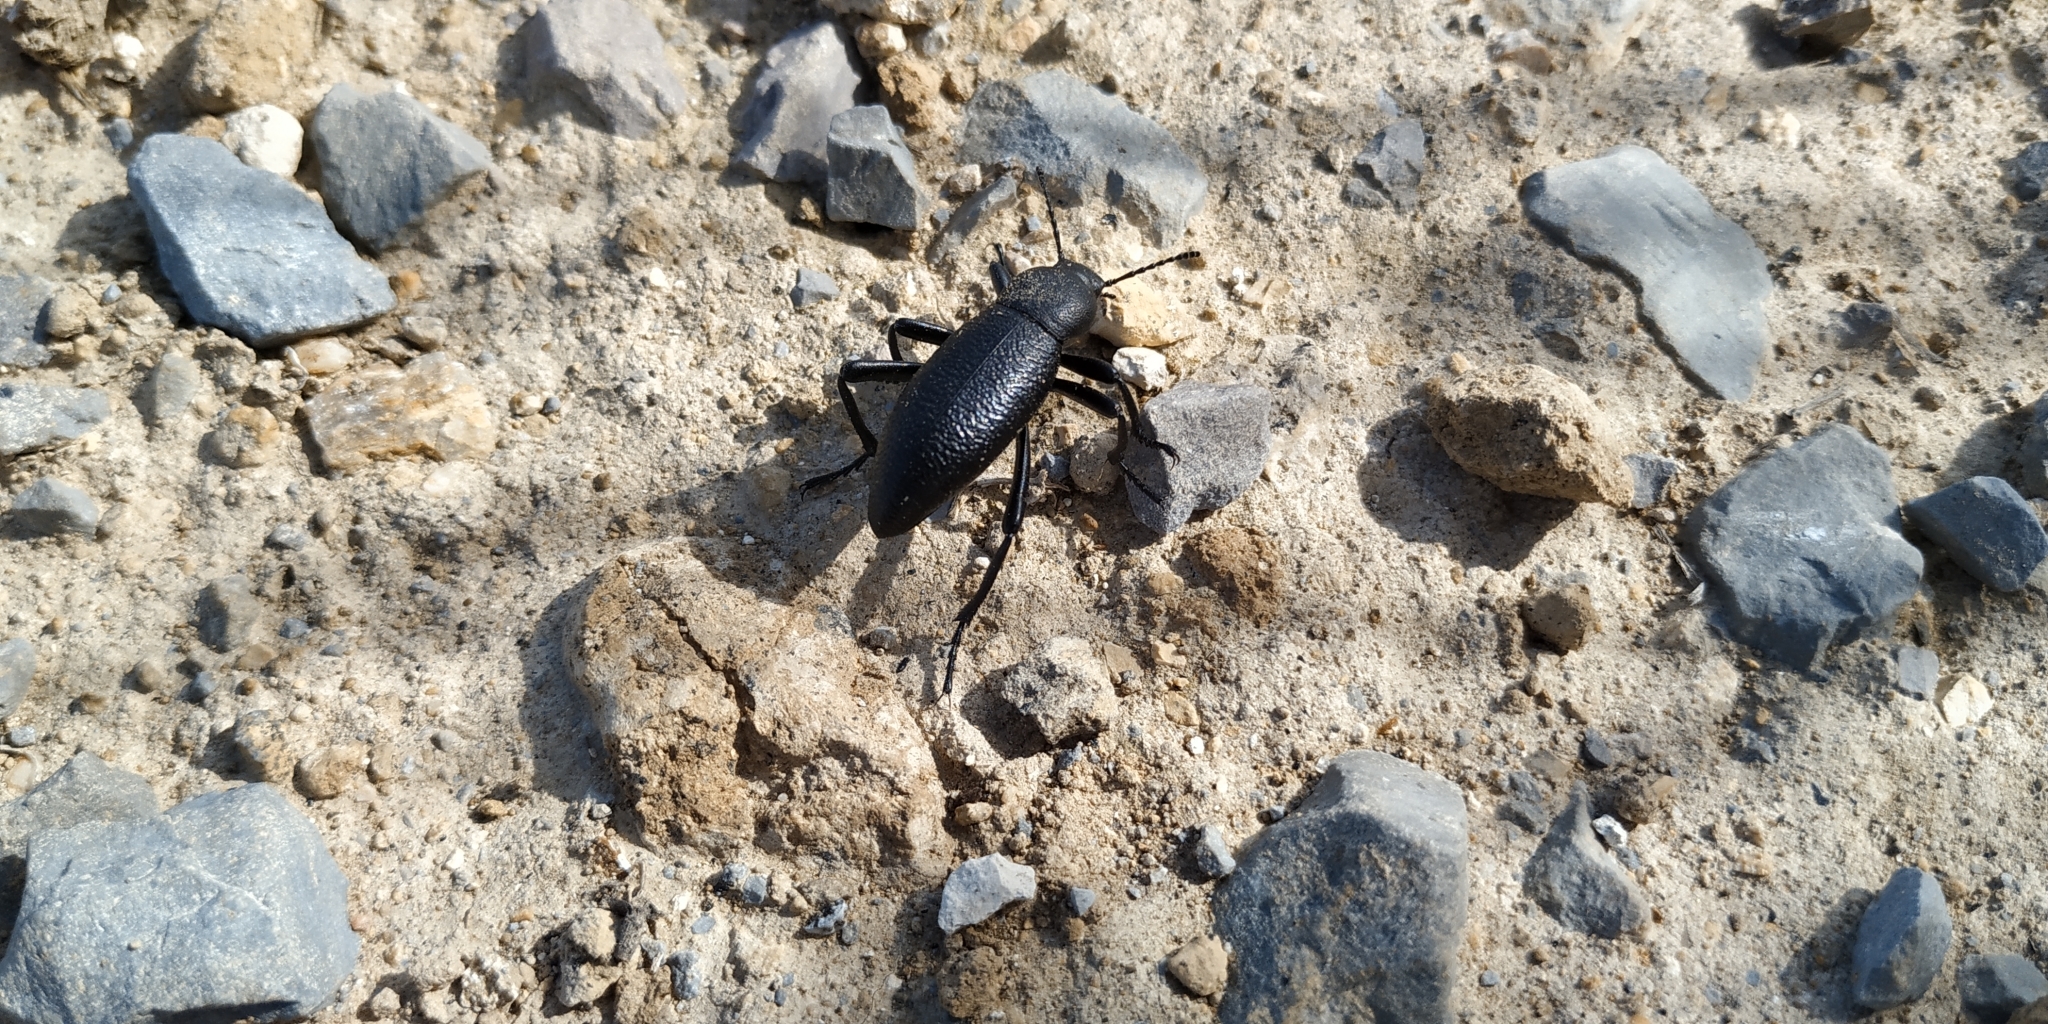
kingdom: Animalia
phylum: Arthropoda
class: Insecta
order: Coleoptera
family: Tenebrionidae
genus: Eleodes
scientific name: Eleodes ruida
